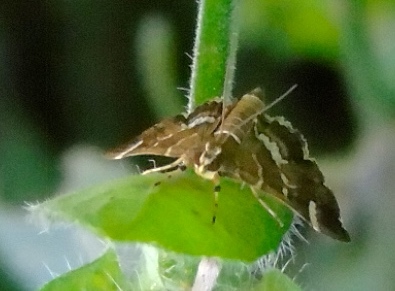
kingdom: Animalia
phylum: Arthropoda
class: Insecta
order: Lepidoptera
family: Crambidae
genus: Hymenia
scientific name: Hymenia perspectalis
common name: Spotted beet webworm
